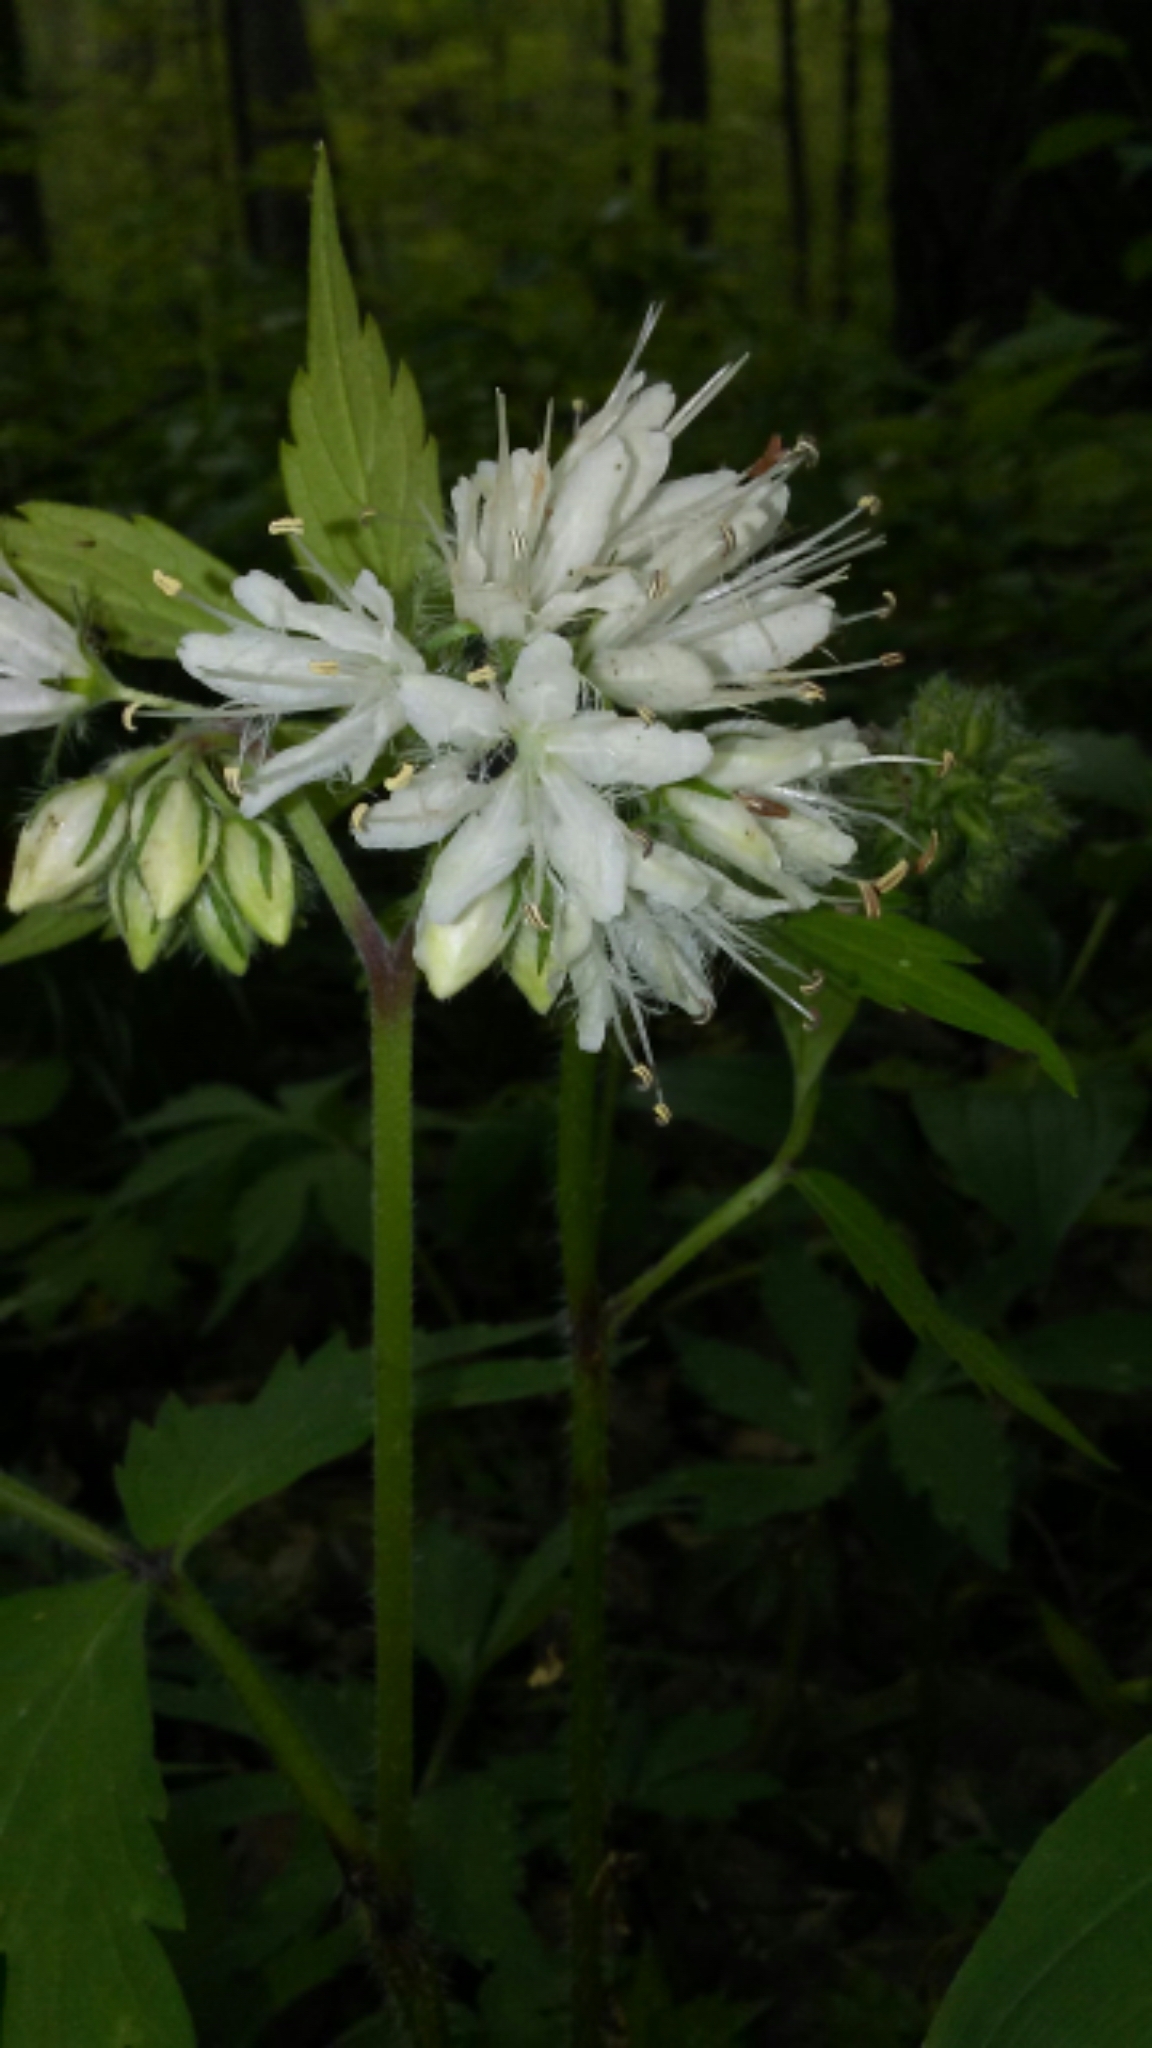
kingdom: Plantae
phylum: Tracheophyta
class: Magnoliopsida
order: Boraginales
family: Hydrophyllaceae
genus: Hydrophyllum
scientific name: Hydrophyllum virginianum
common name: Virginia waterleaf
